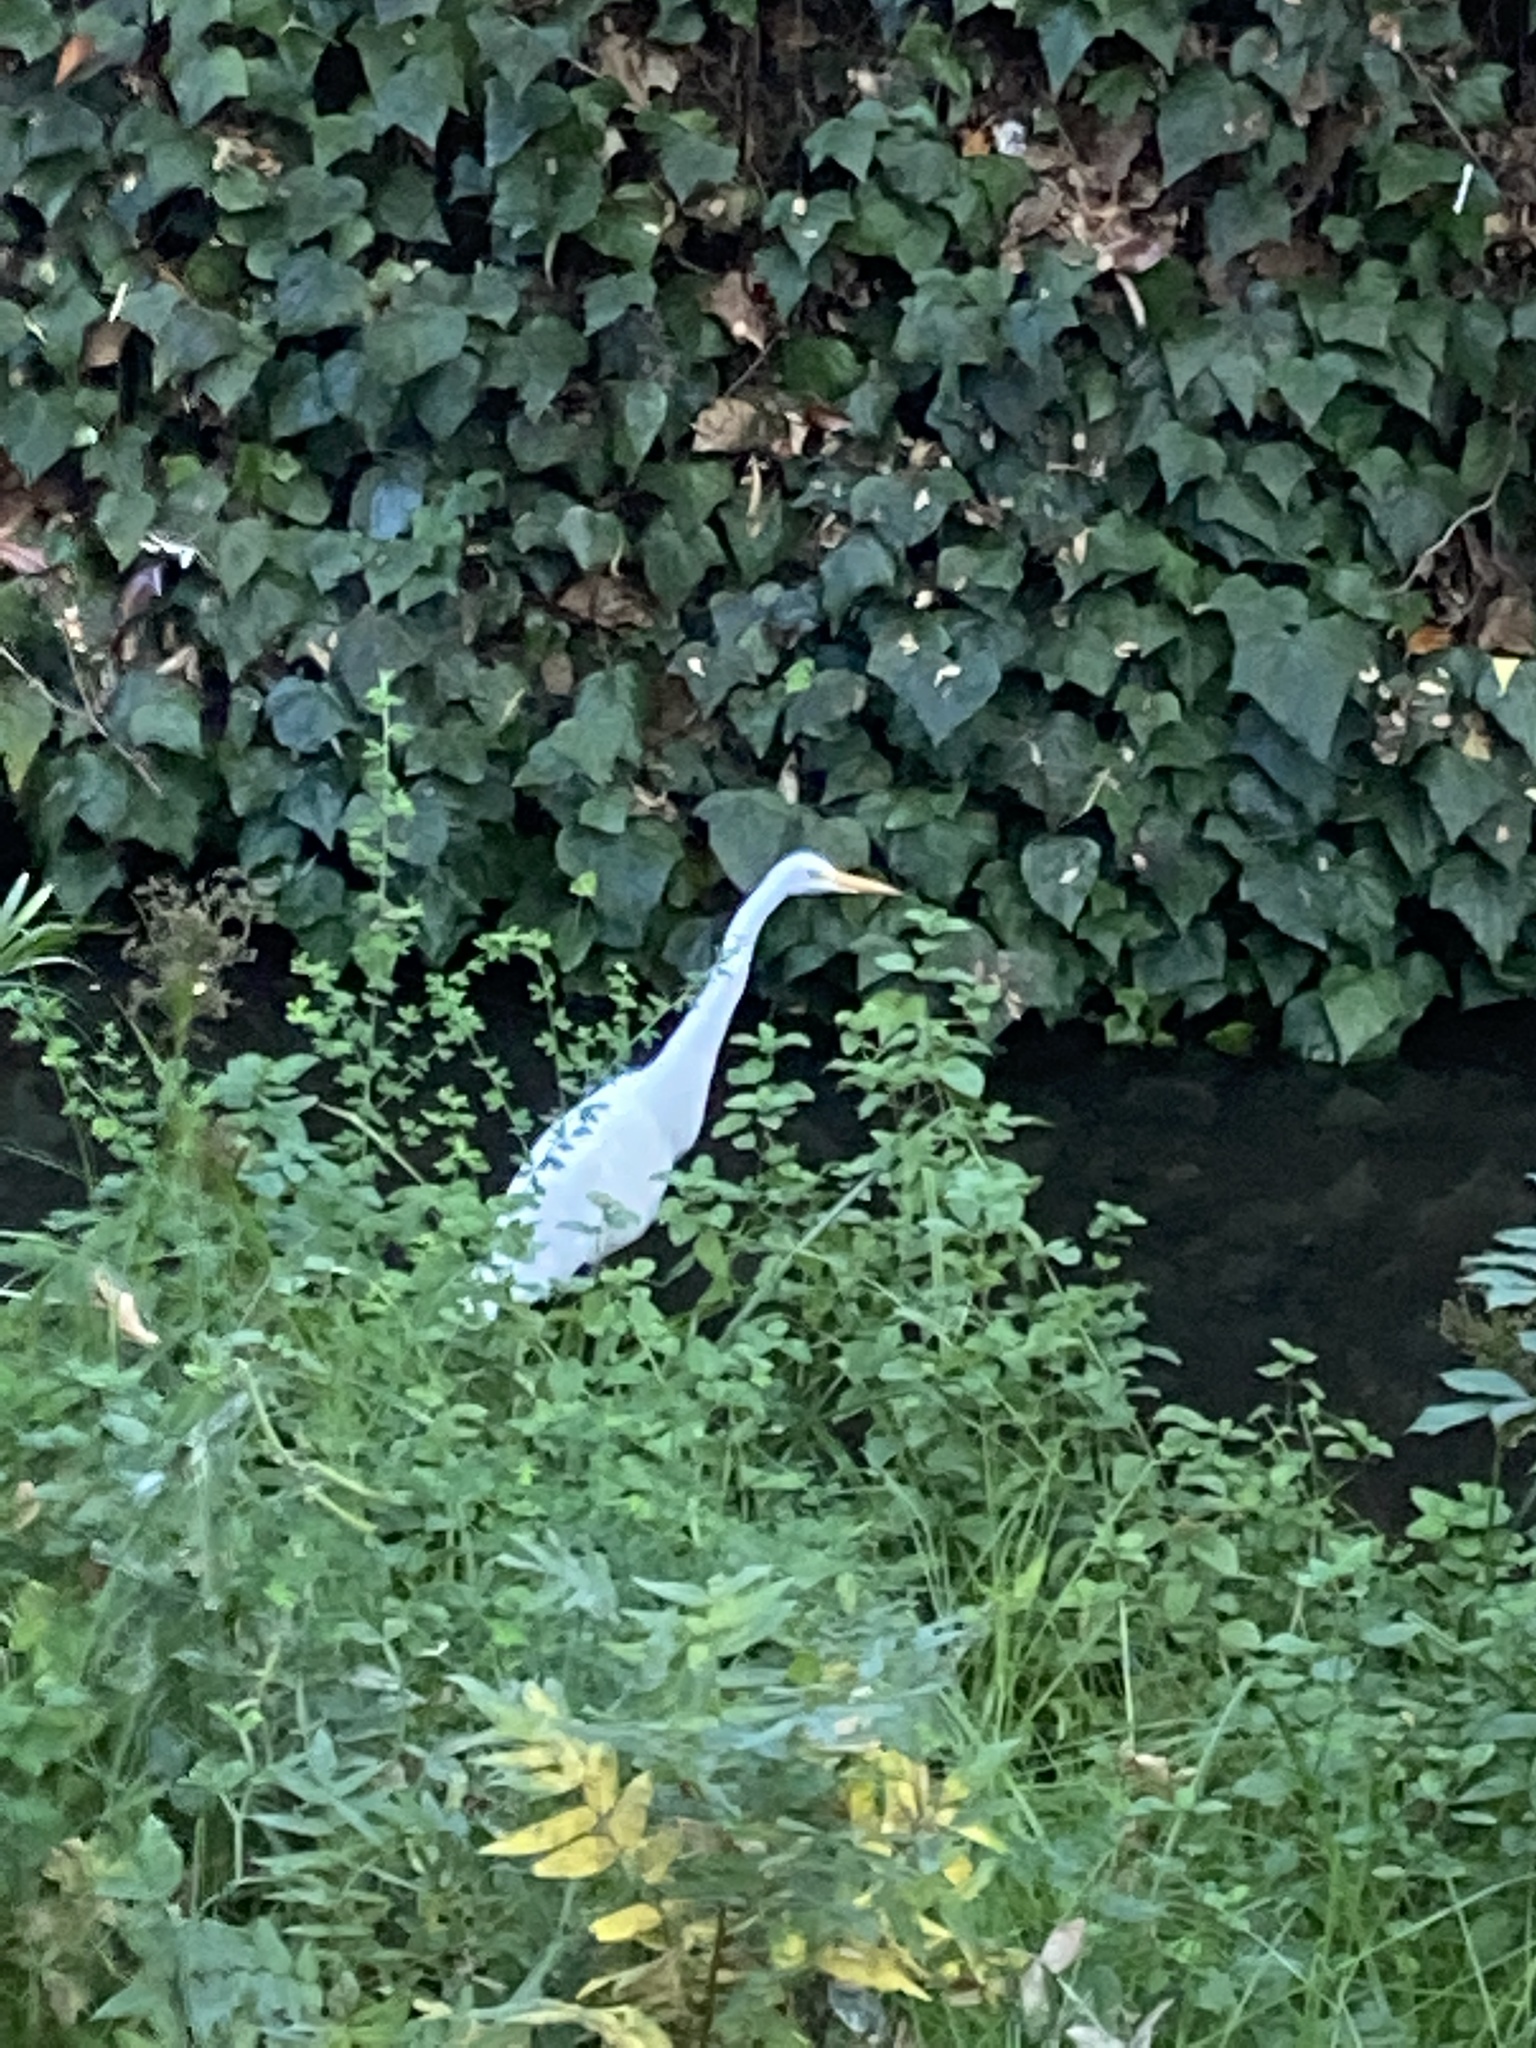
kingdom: Animalia
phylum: Chordata
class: Aves
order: Pelecaniformes
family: Ardeidae
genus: Ardea
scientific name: Ardea alba
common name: Great egret
